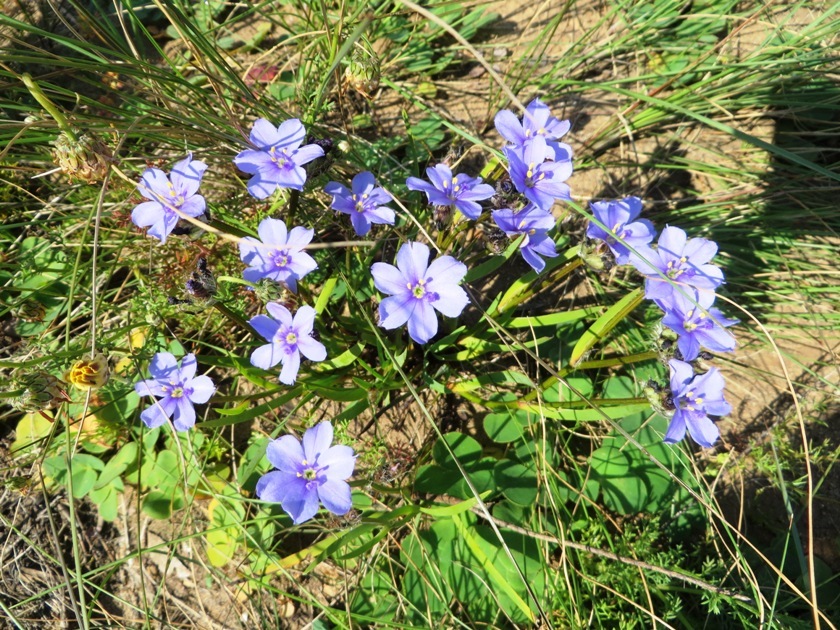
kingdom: Plantae
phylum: Tracheophyta
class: Liliopsida
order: Asparagales
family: Iridaceae
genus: Aristea
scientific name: Aristea africana
